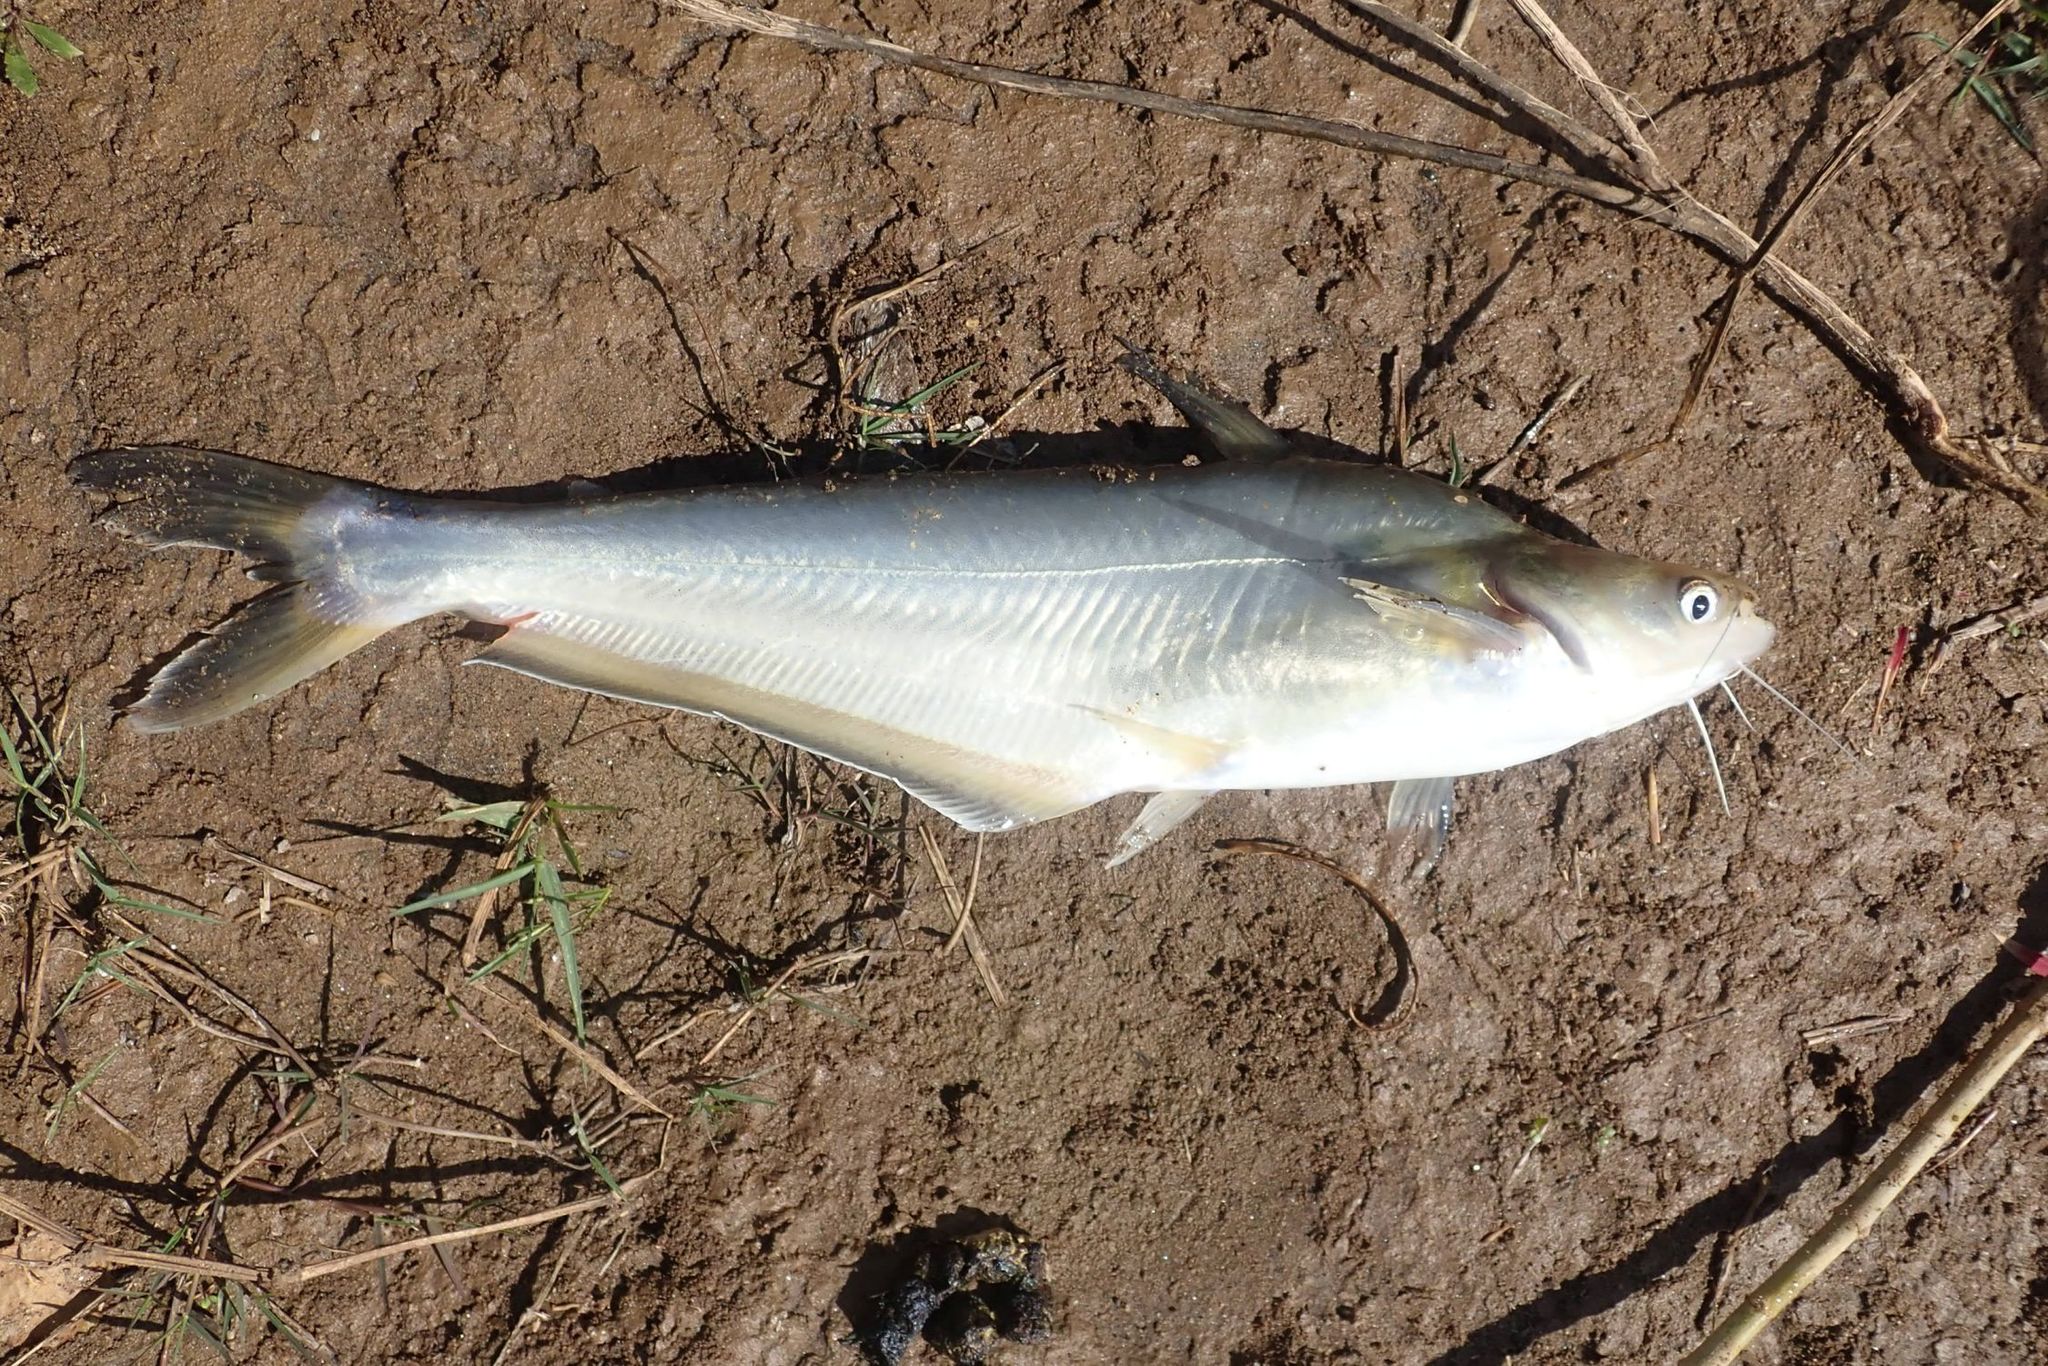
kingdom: Animalia
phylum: Chordata
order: Siluriformes
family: Schilbeidae
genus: Schilbe
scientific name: Schilbe intermedius
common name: Silver catfish
